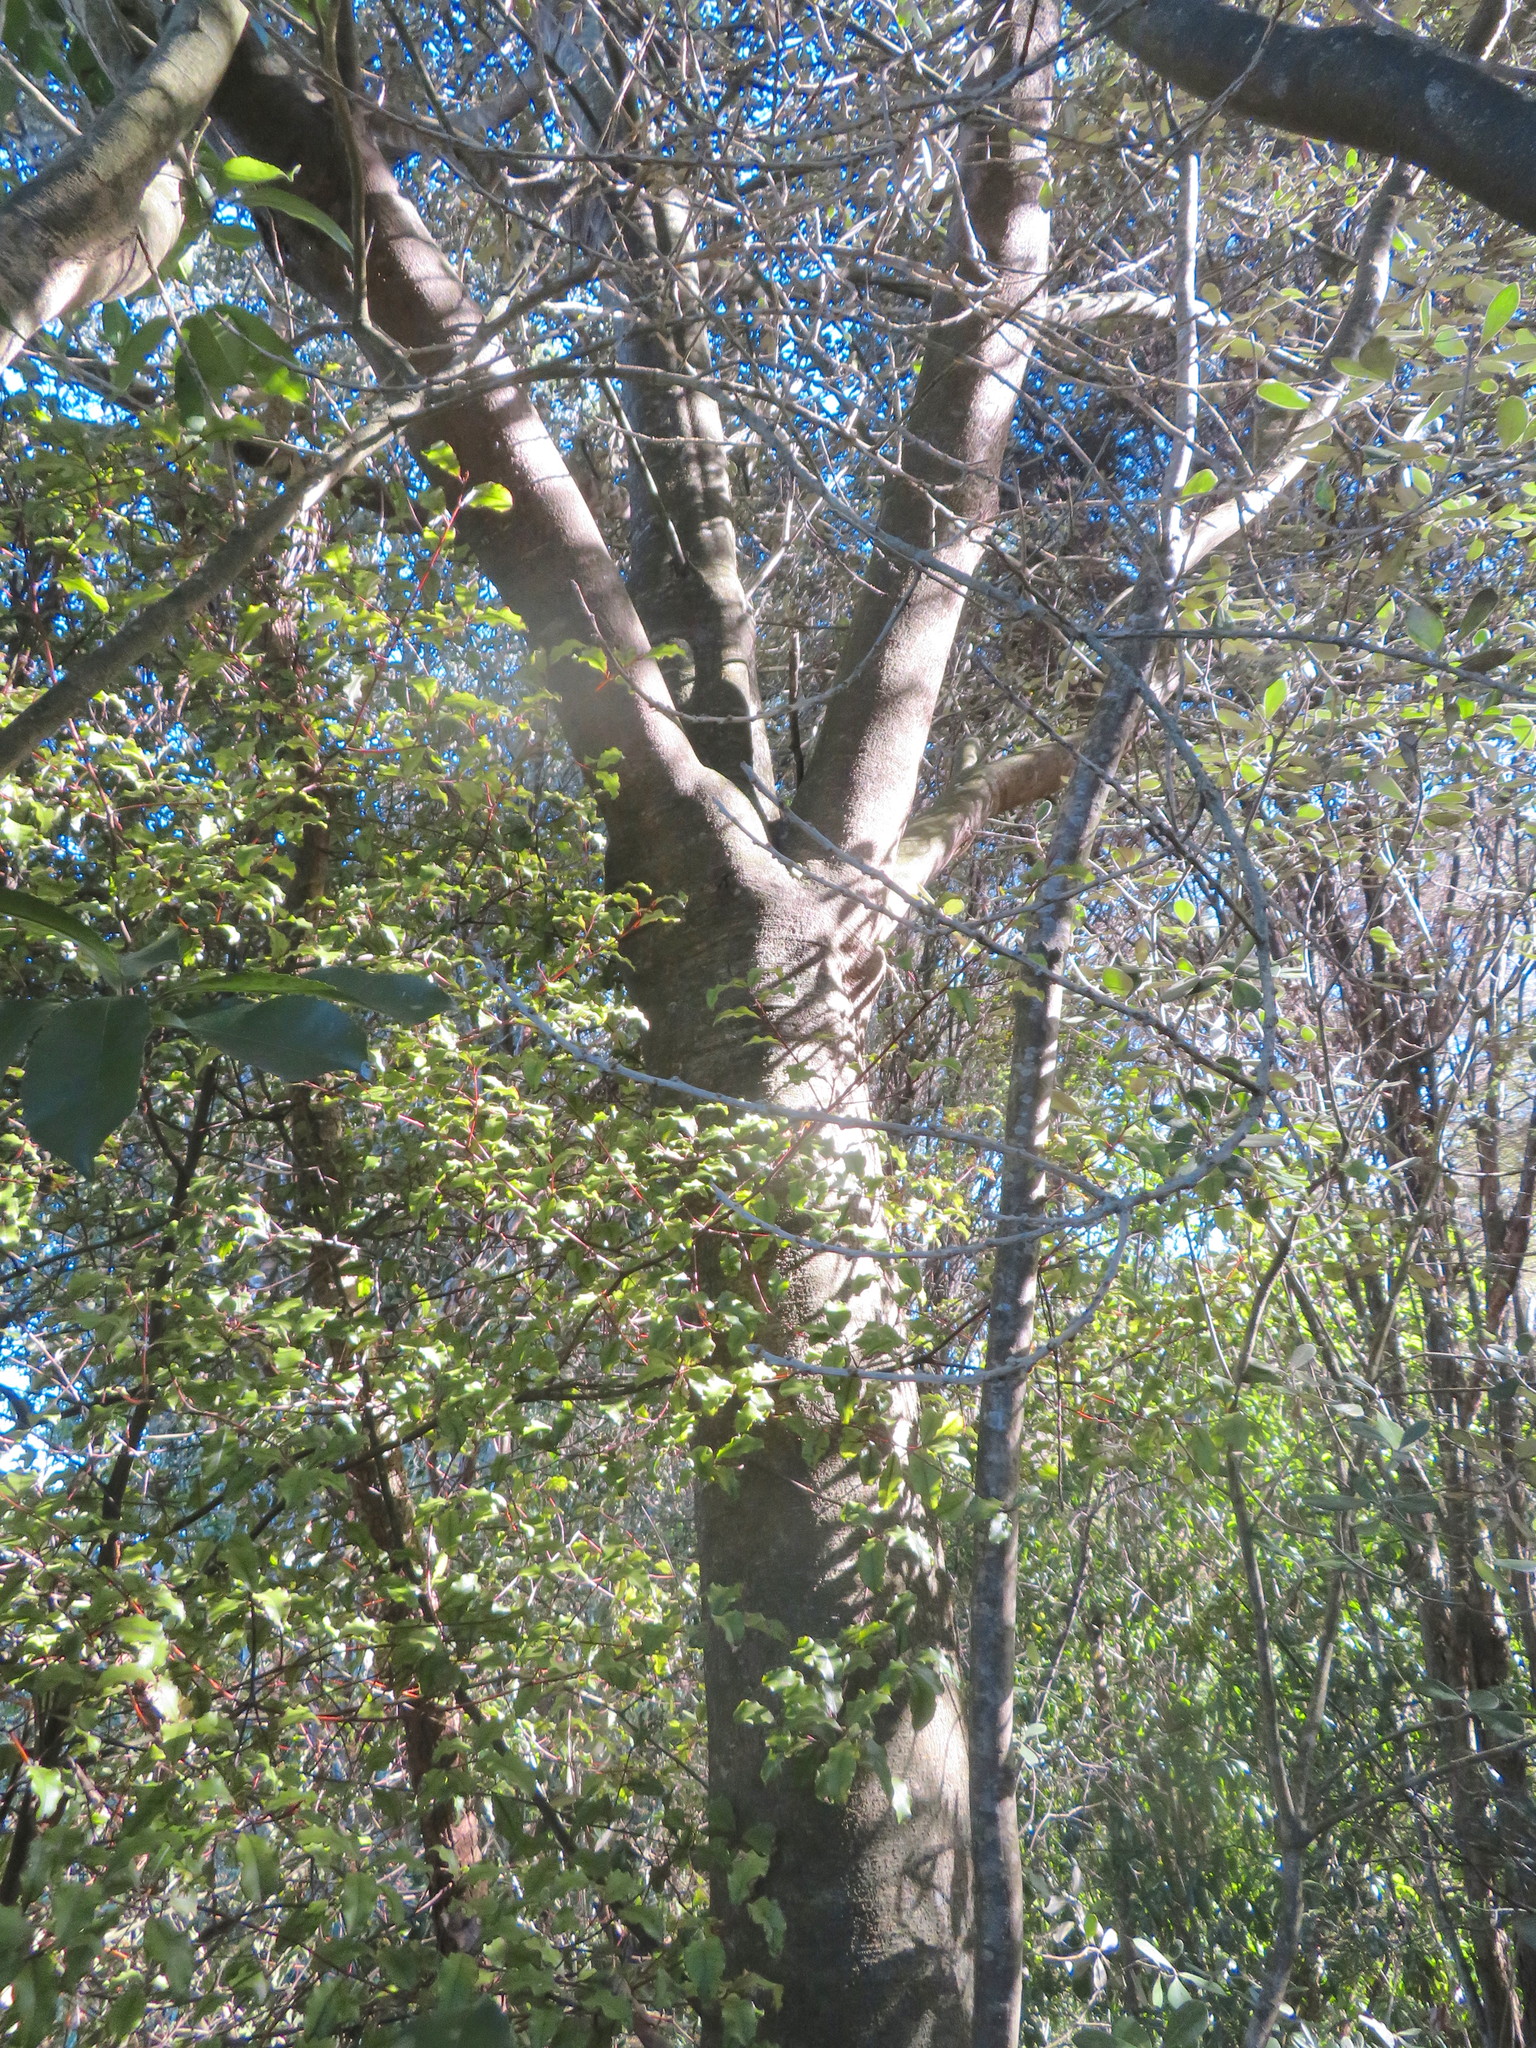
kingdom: Plantae
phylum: Tracheophyta
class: Magnoliopsida
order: Apiales
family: Pittosporaceae
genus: Pittosporum
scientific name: Pittosporum crassifolium
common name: Karo
